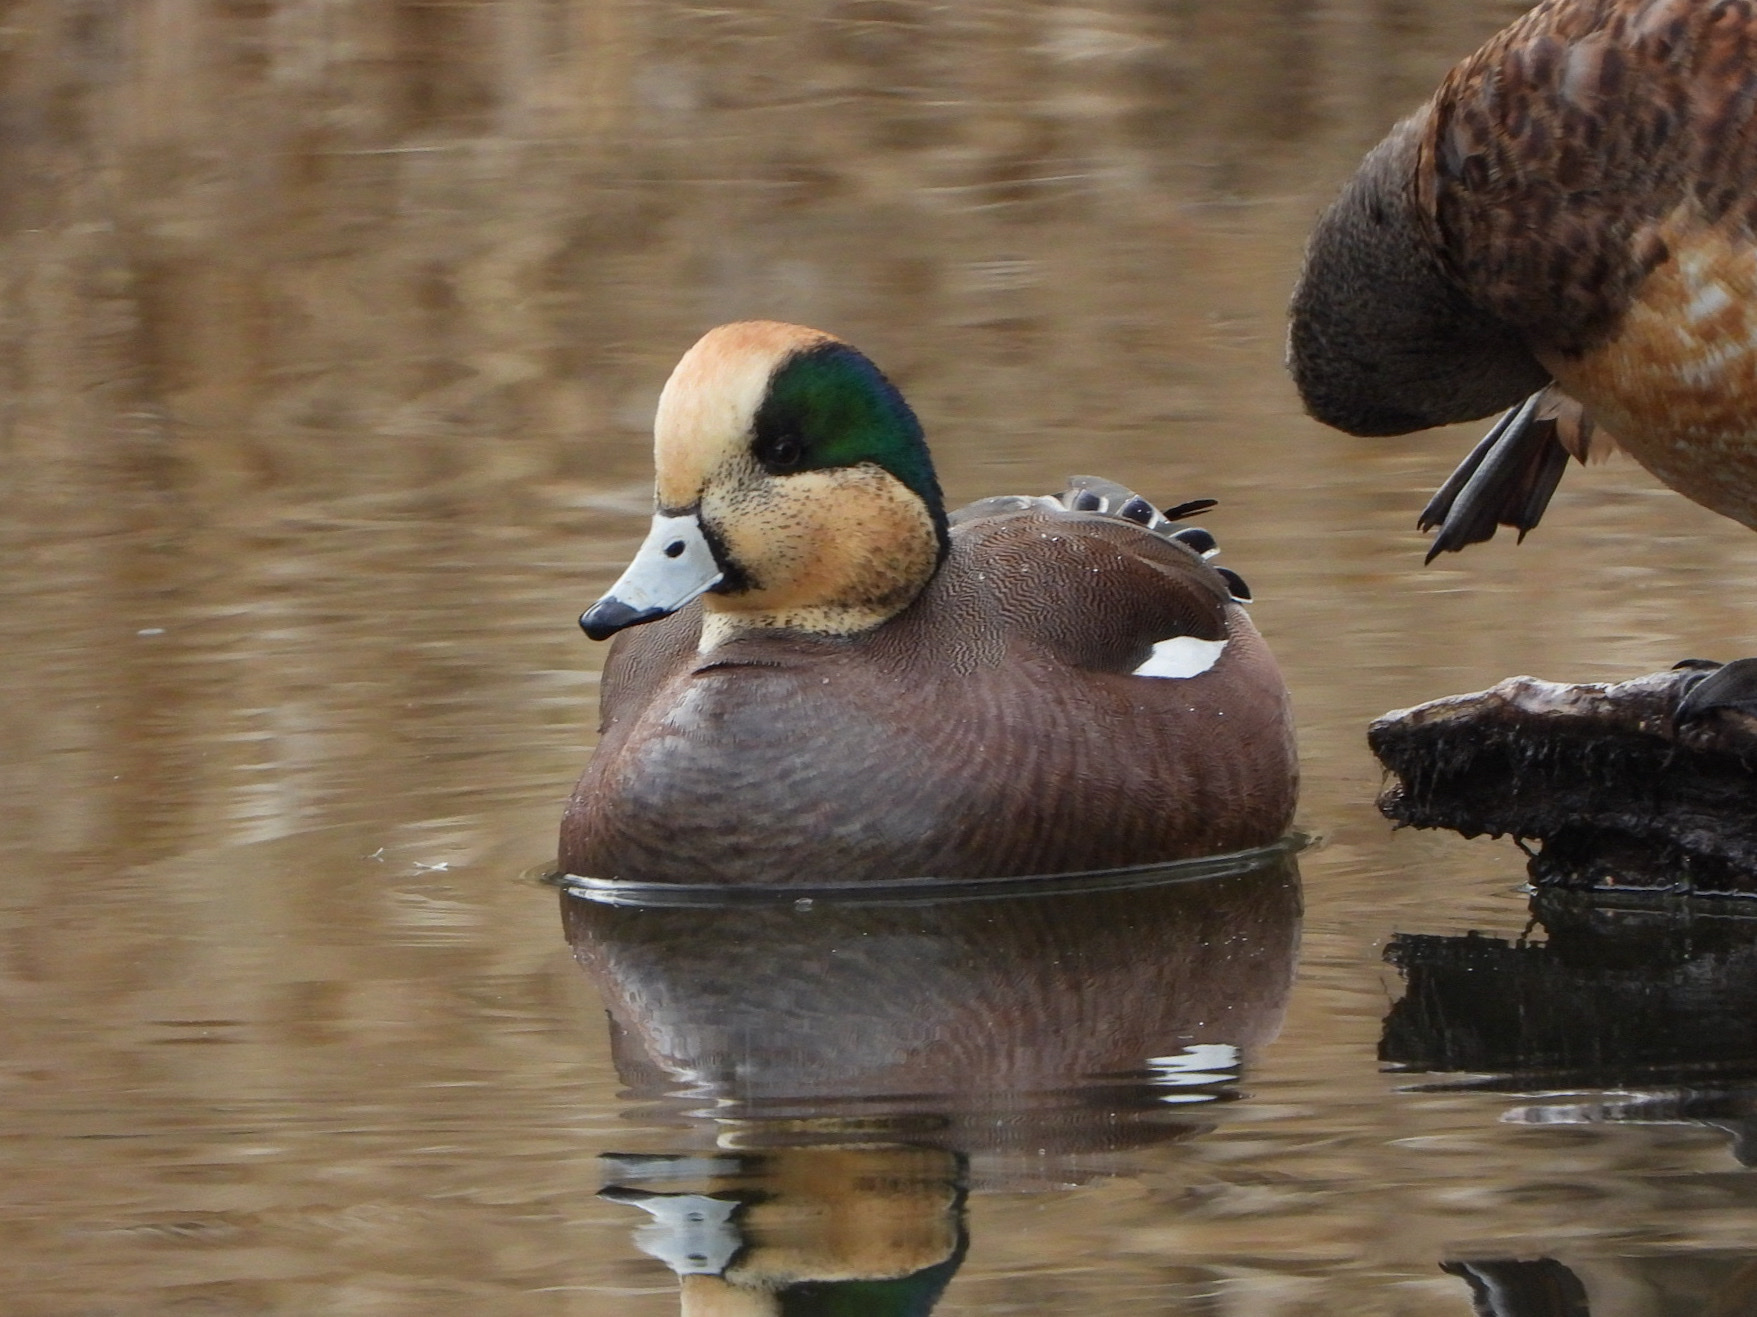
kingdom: Animalia
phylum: Chordata
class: Aves
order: Anseriformes
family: Anatidae
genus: Mareca
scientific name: Mareca americana
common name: American wigeon
